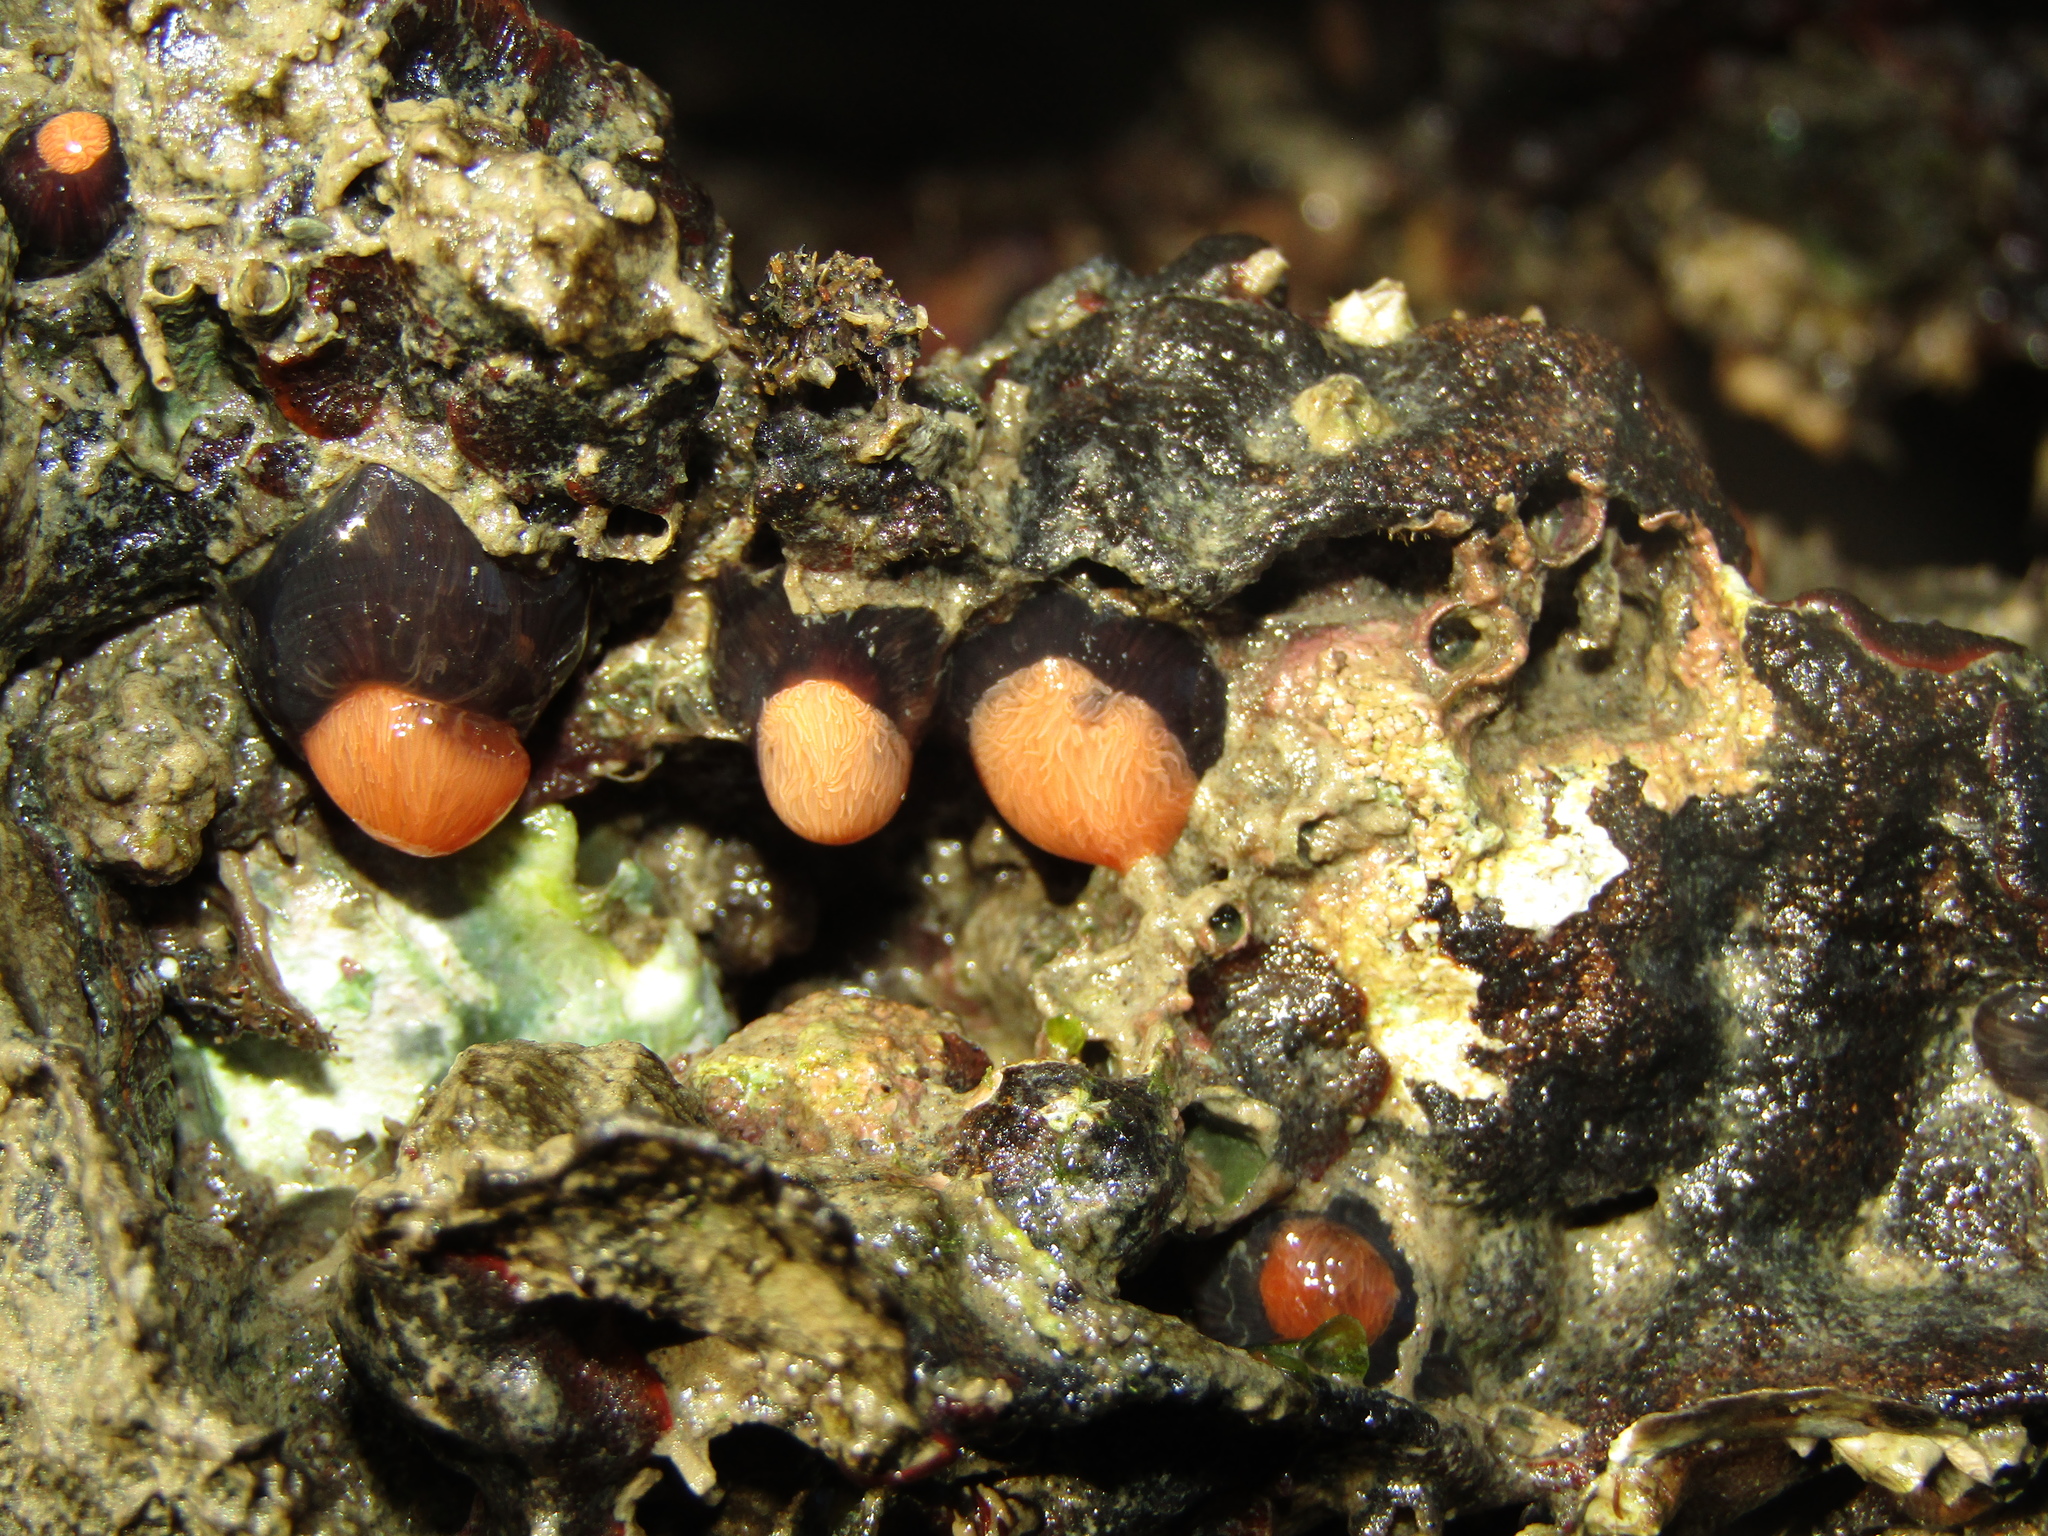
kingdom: Animalia
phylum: Cnidaria
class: Anthozoa
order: Actiniaria
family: Diadumenidae
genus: Diadumene
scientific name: Diadumene neozelanica
